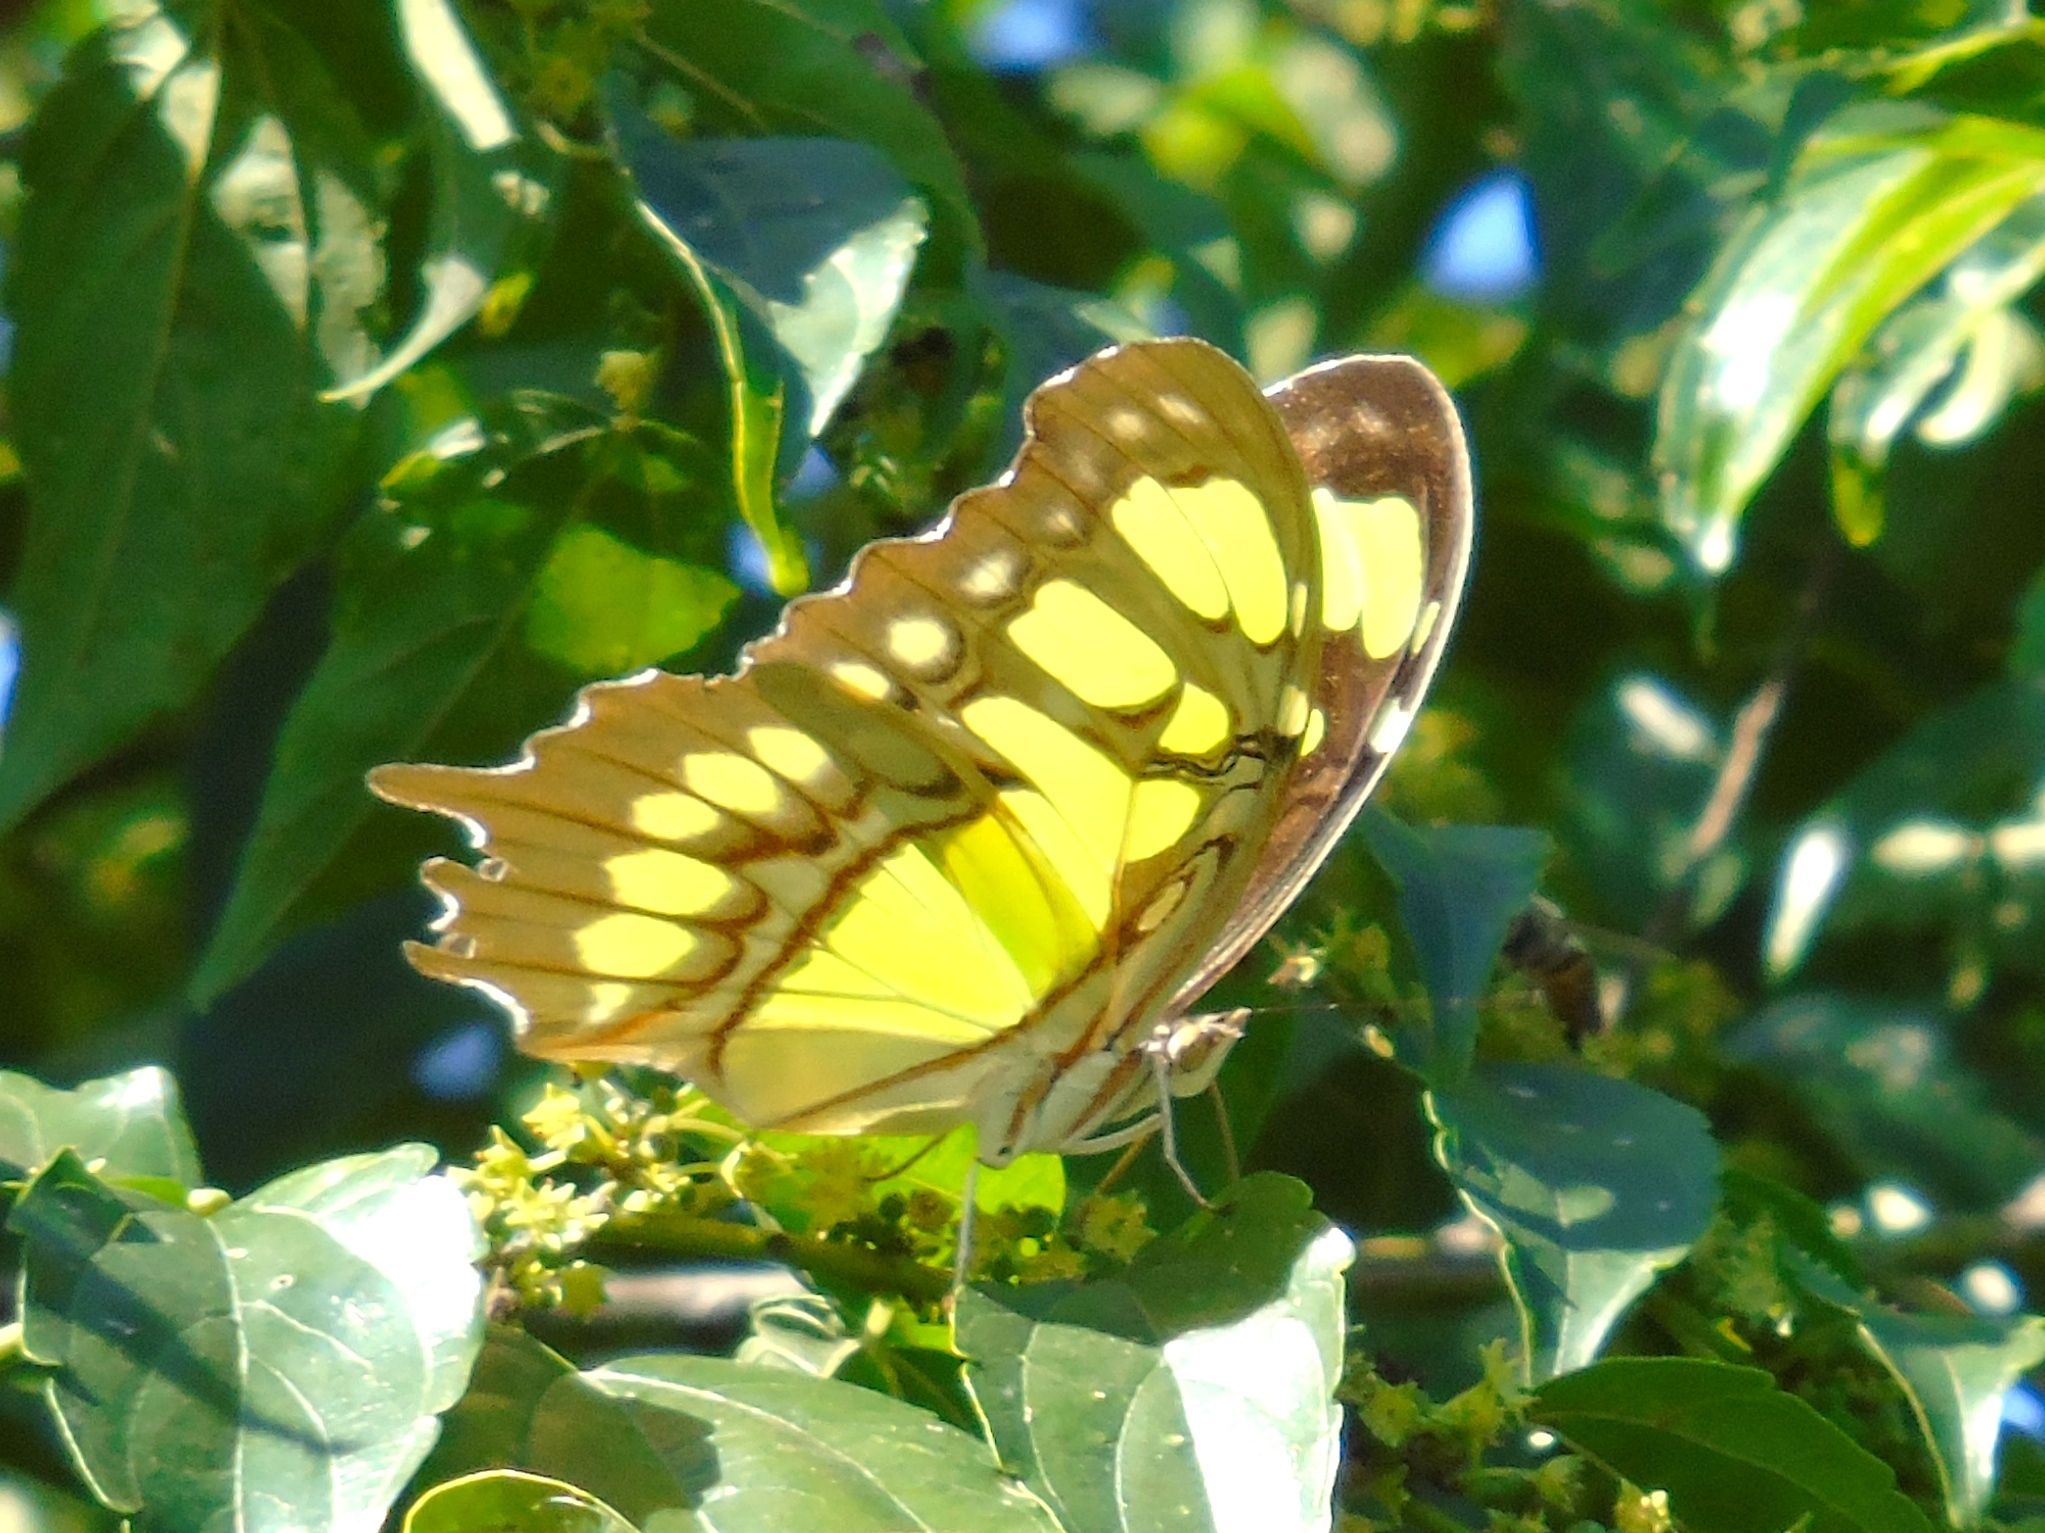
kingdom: Animalia
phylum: Arthropoda
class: Insecta
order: Lepidoptera
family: Nymphalidae
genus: Siproeta
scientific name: Siproeta stelenes
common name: Malachite
